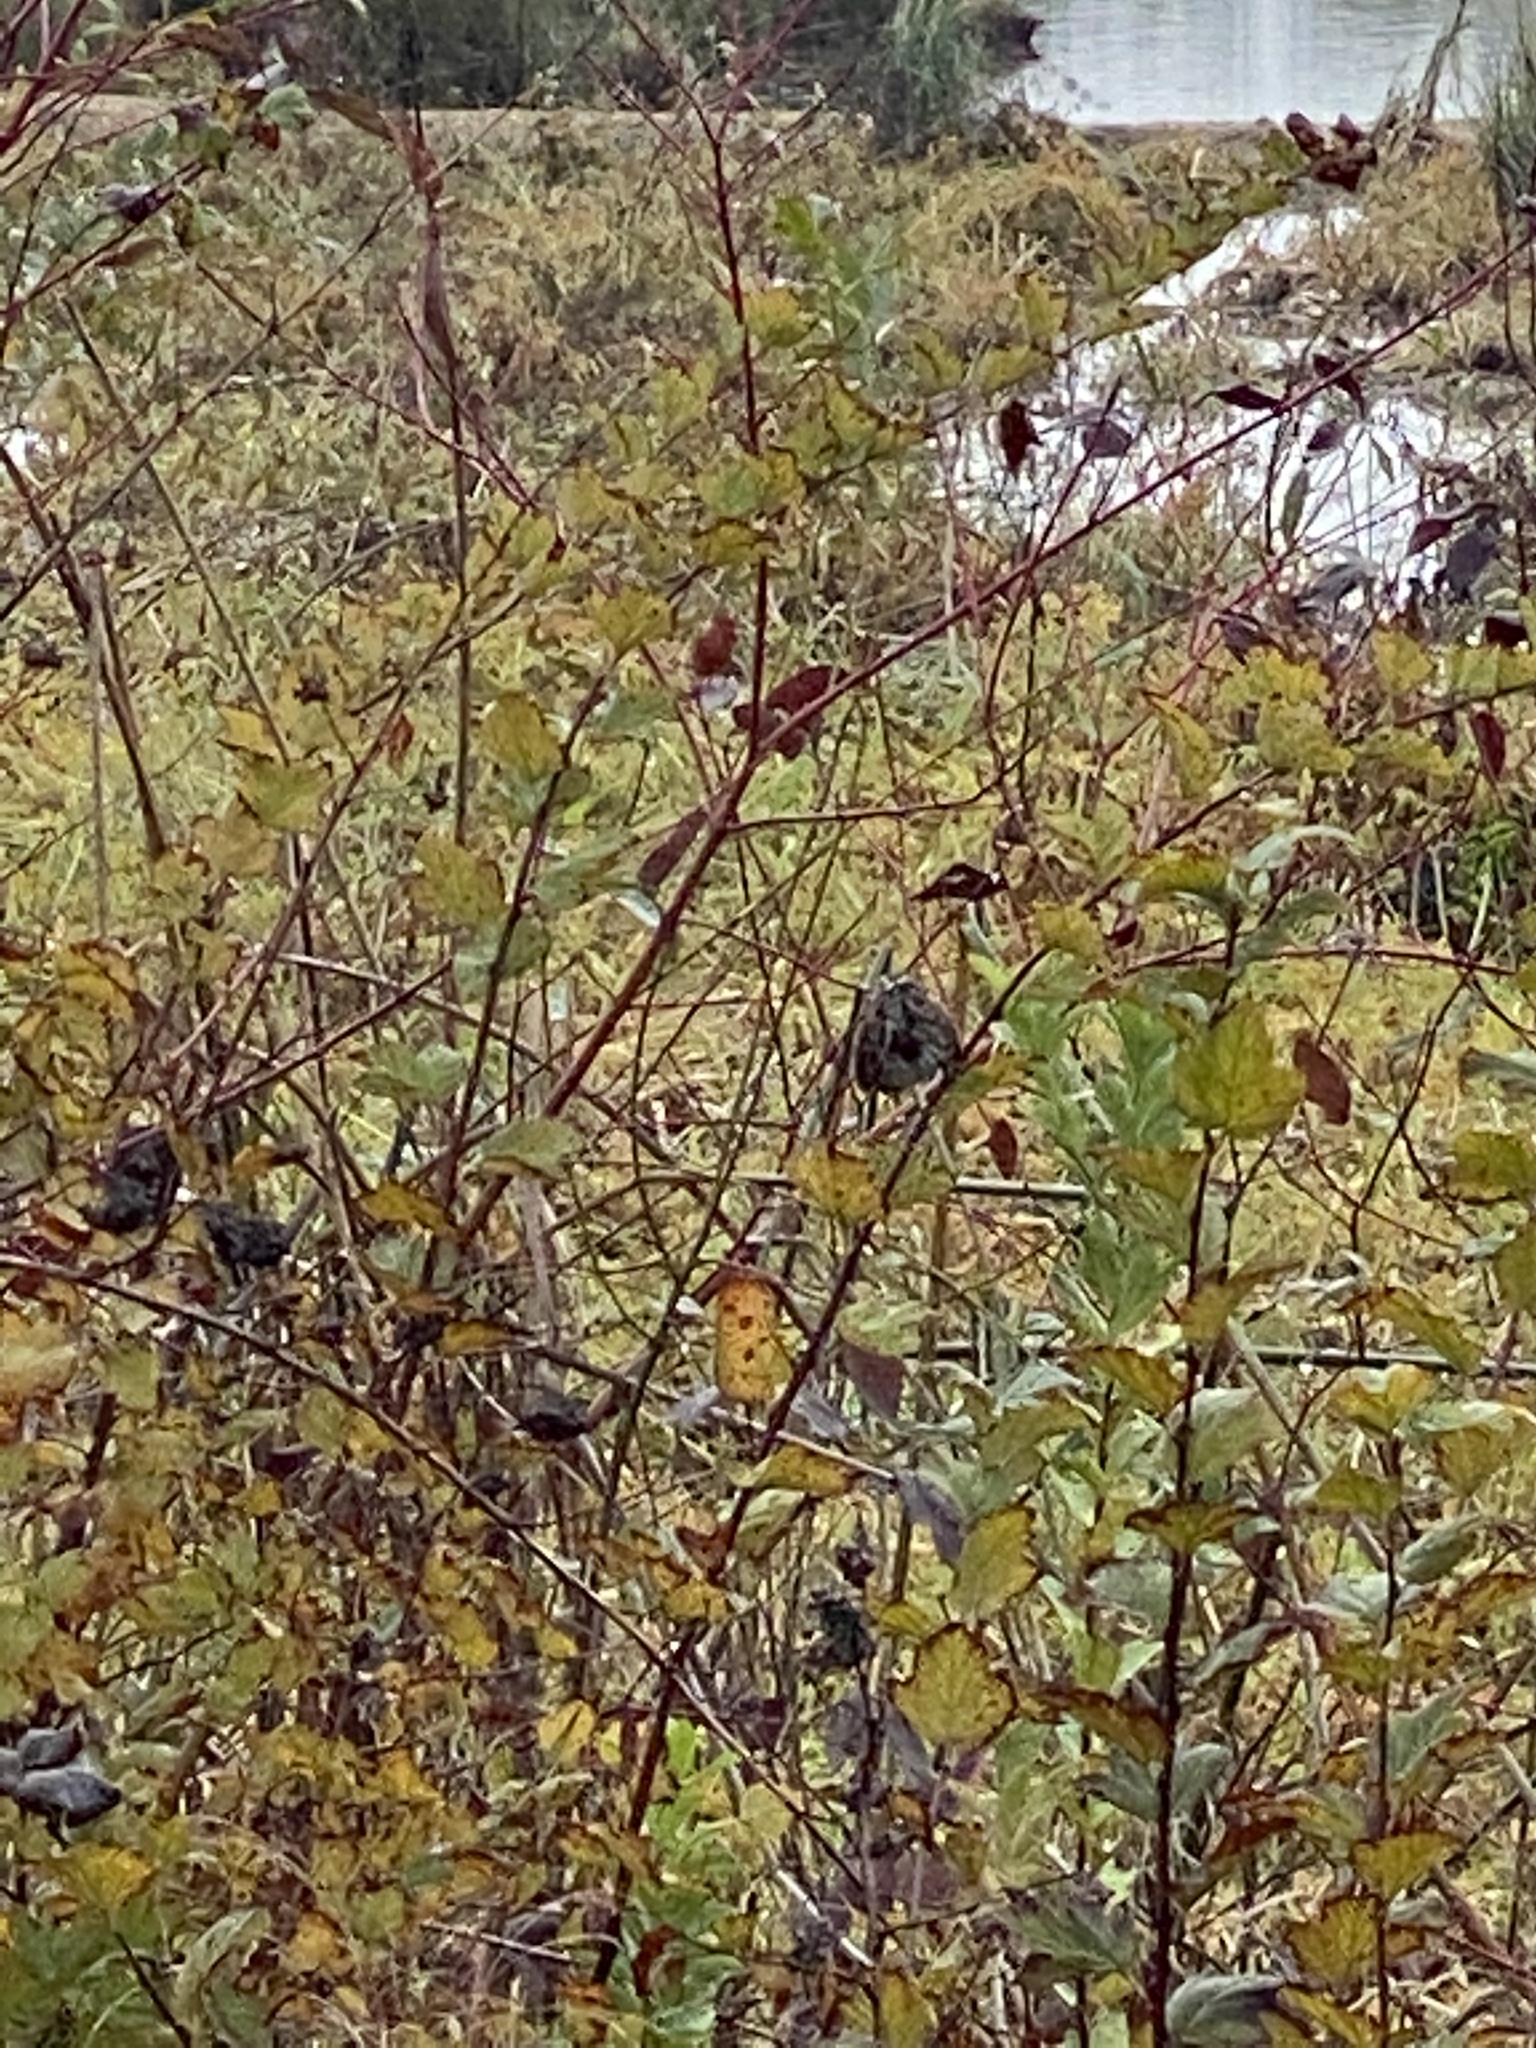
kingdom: Animalia
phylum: Chordata
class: Aves
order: Passeriformes
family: Passerellidae
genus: Melospiza
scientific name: Melospiza melodia
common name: Song sparrow
